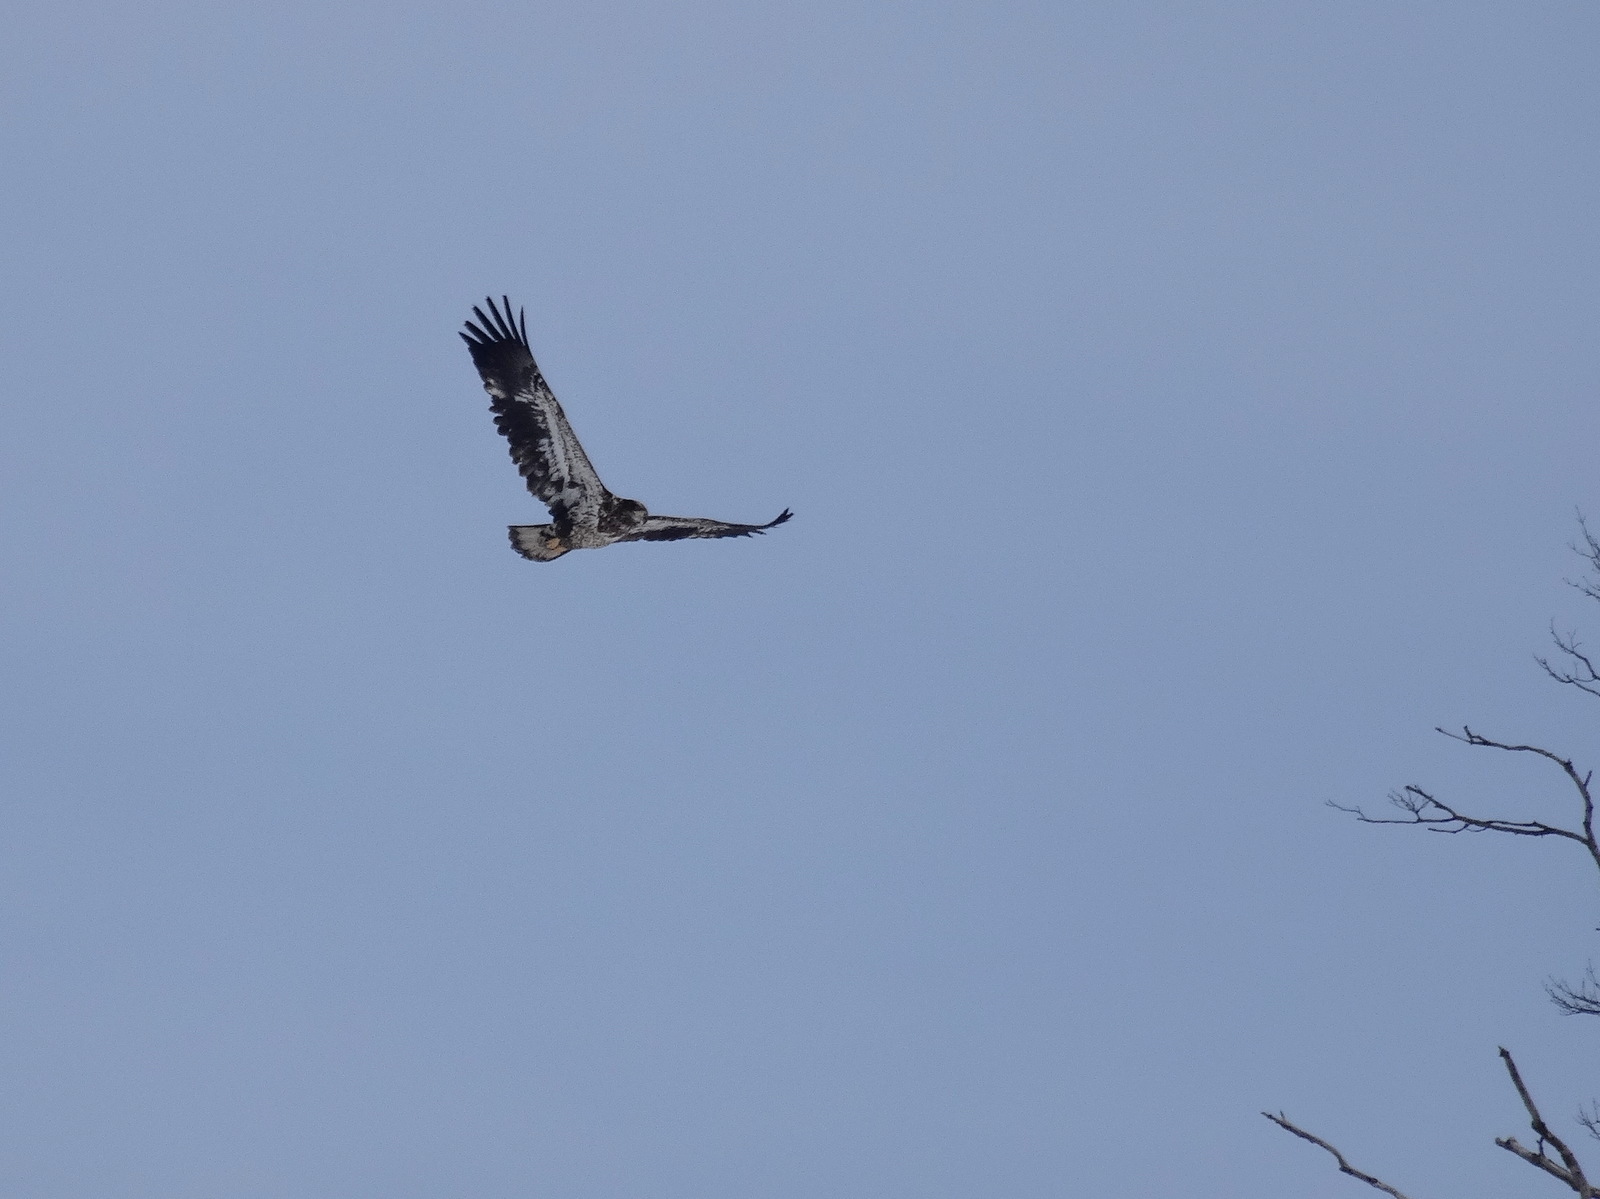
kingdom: Animalia
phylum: Chordata
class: Aves
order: Accipitriformes
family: Accipitridae
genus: Haliaeetus
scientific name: Haliaeetus leucocephalus
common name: Bald eagle
